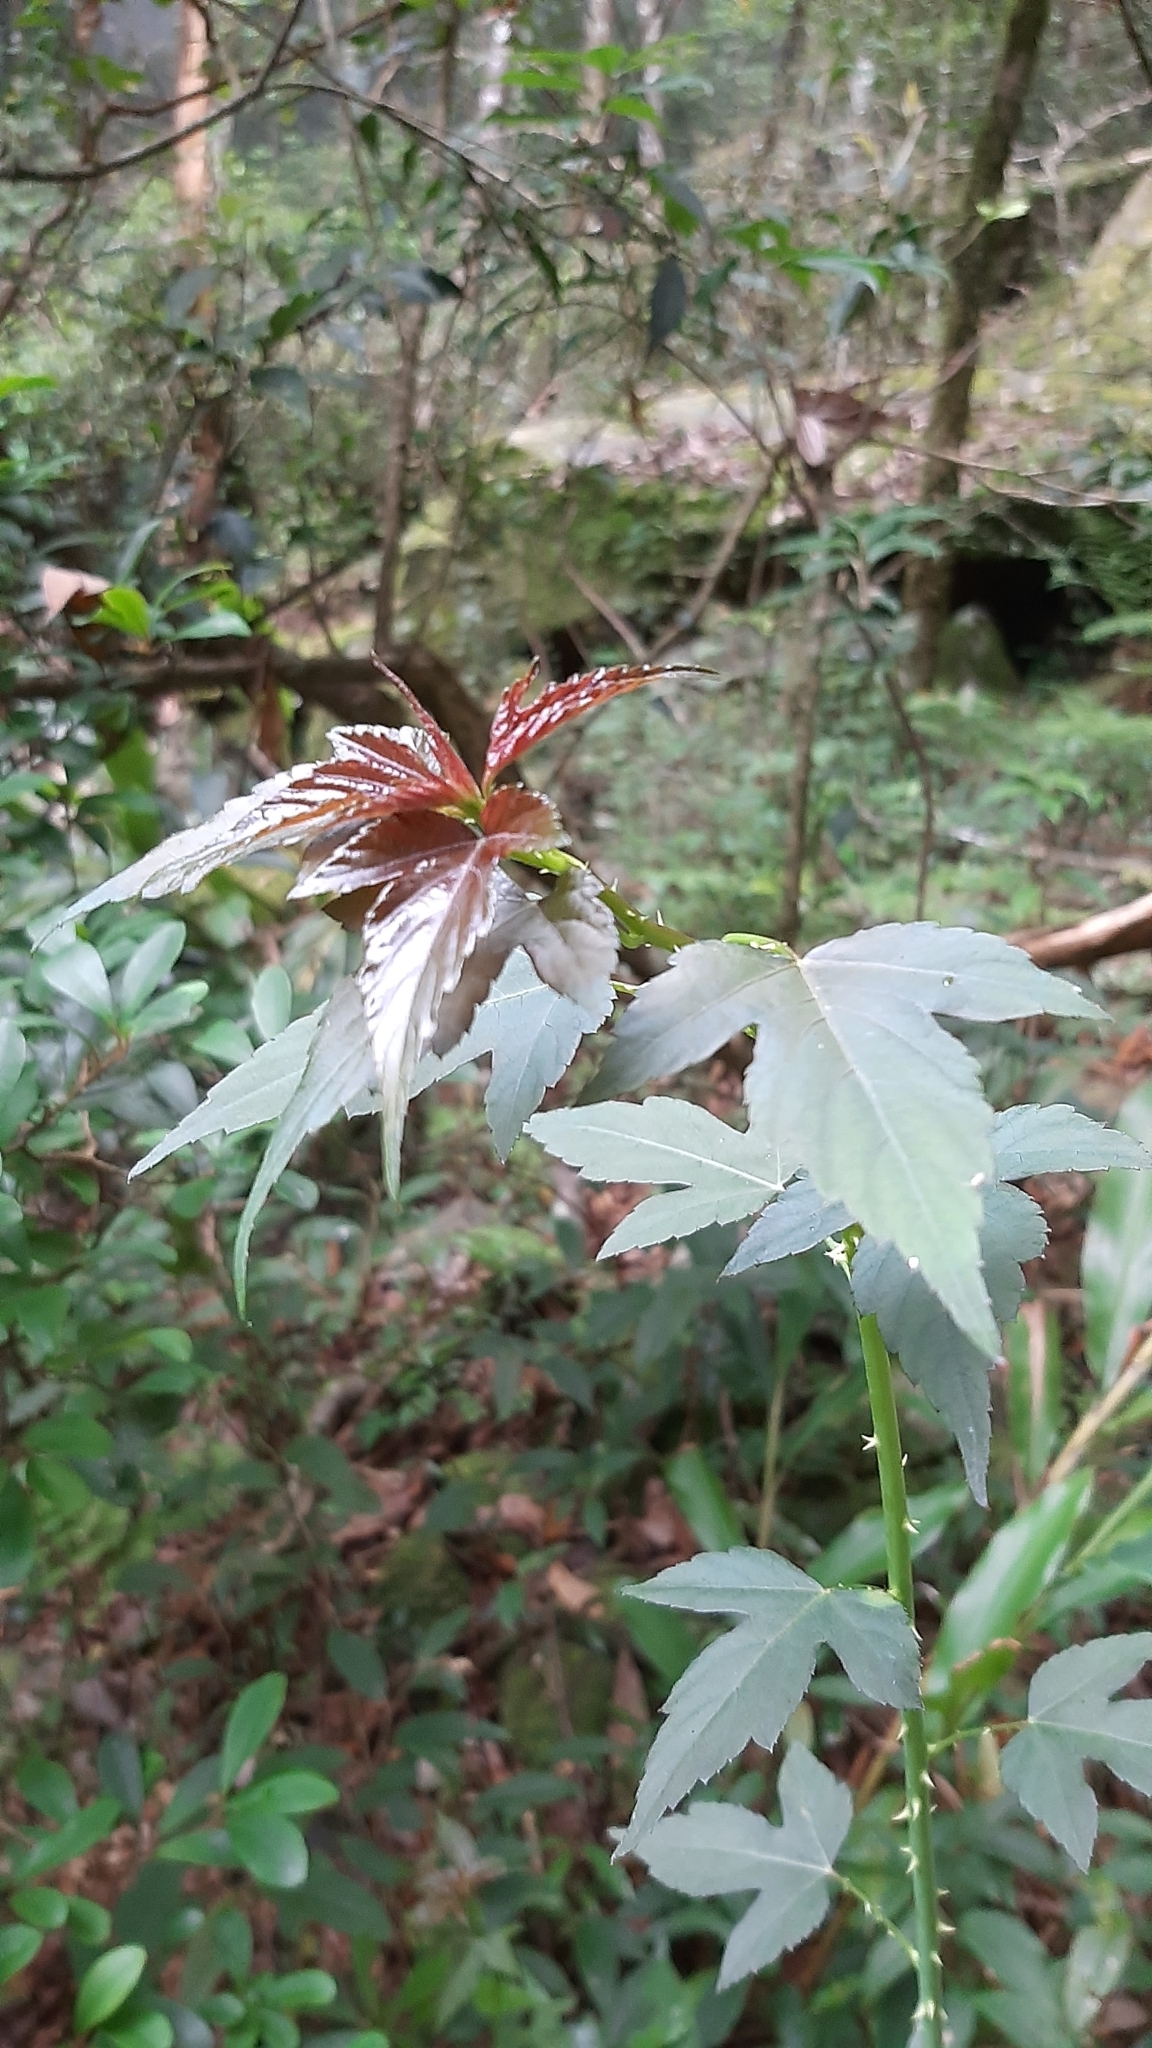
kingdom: Plantae
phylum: Tracheophyta
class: Magnoliopsida
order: Rosales
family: Rosaceae
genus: Rubus
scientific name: Rubus corchorifolius
